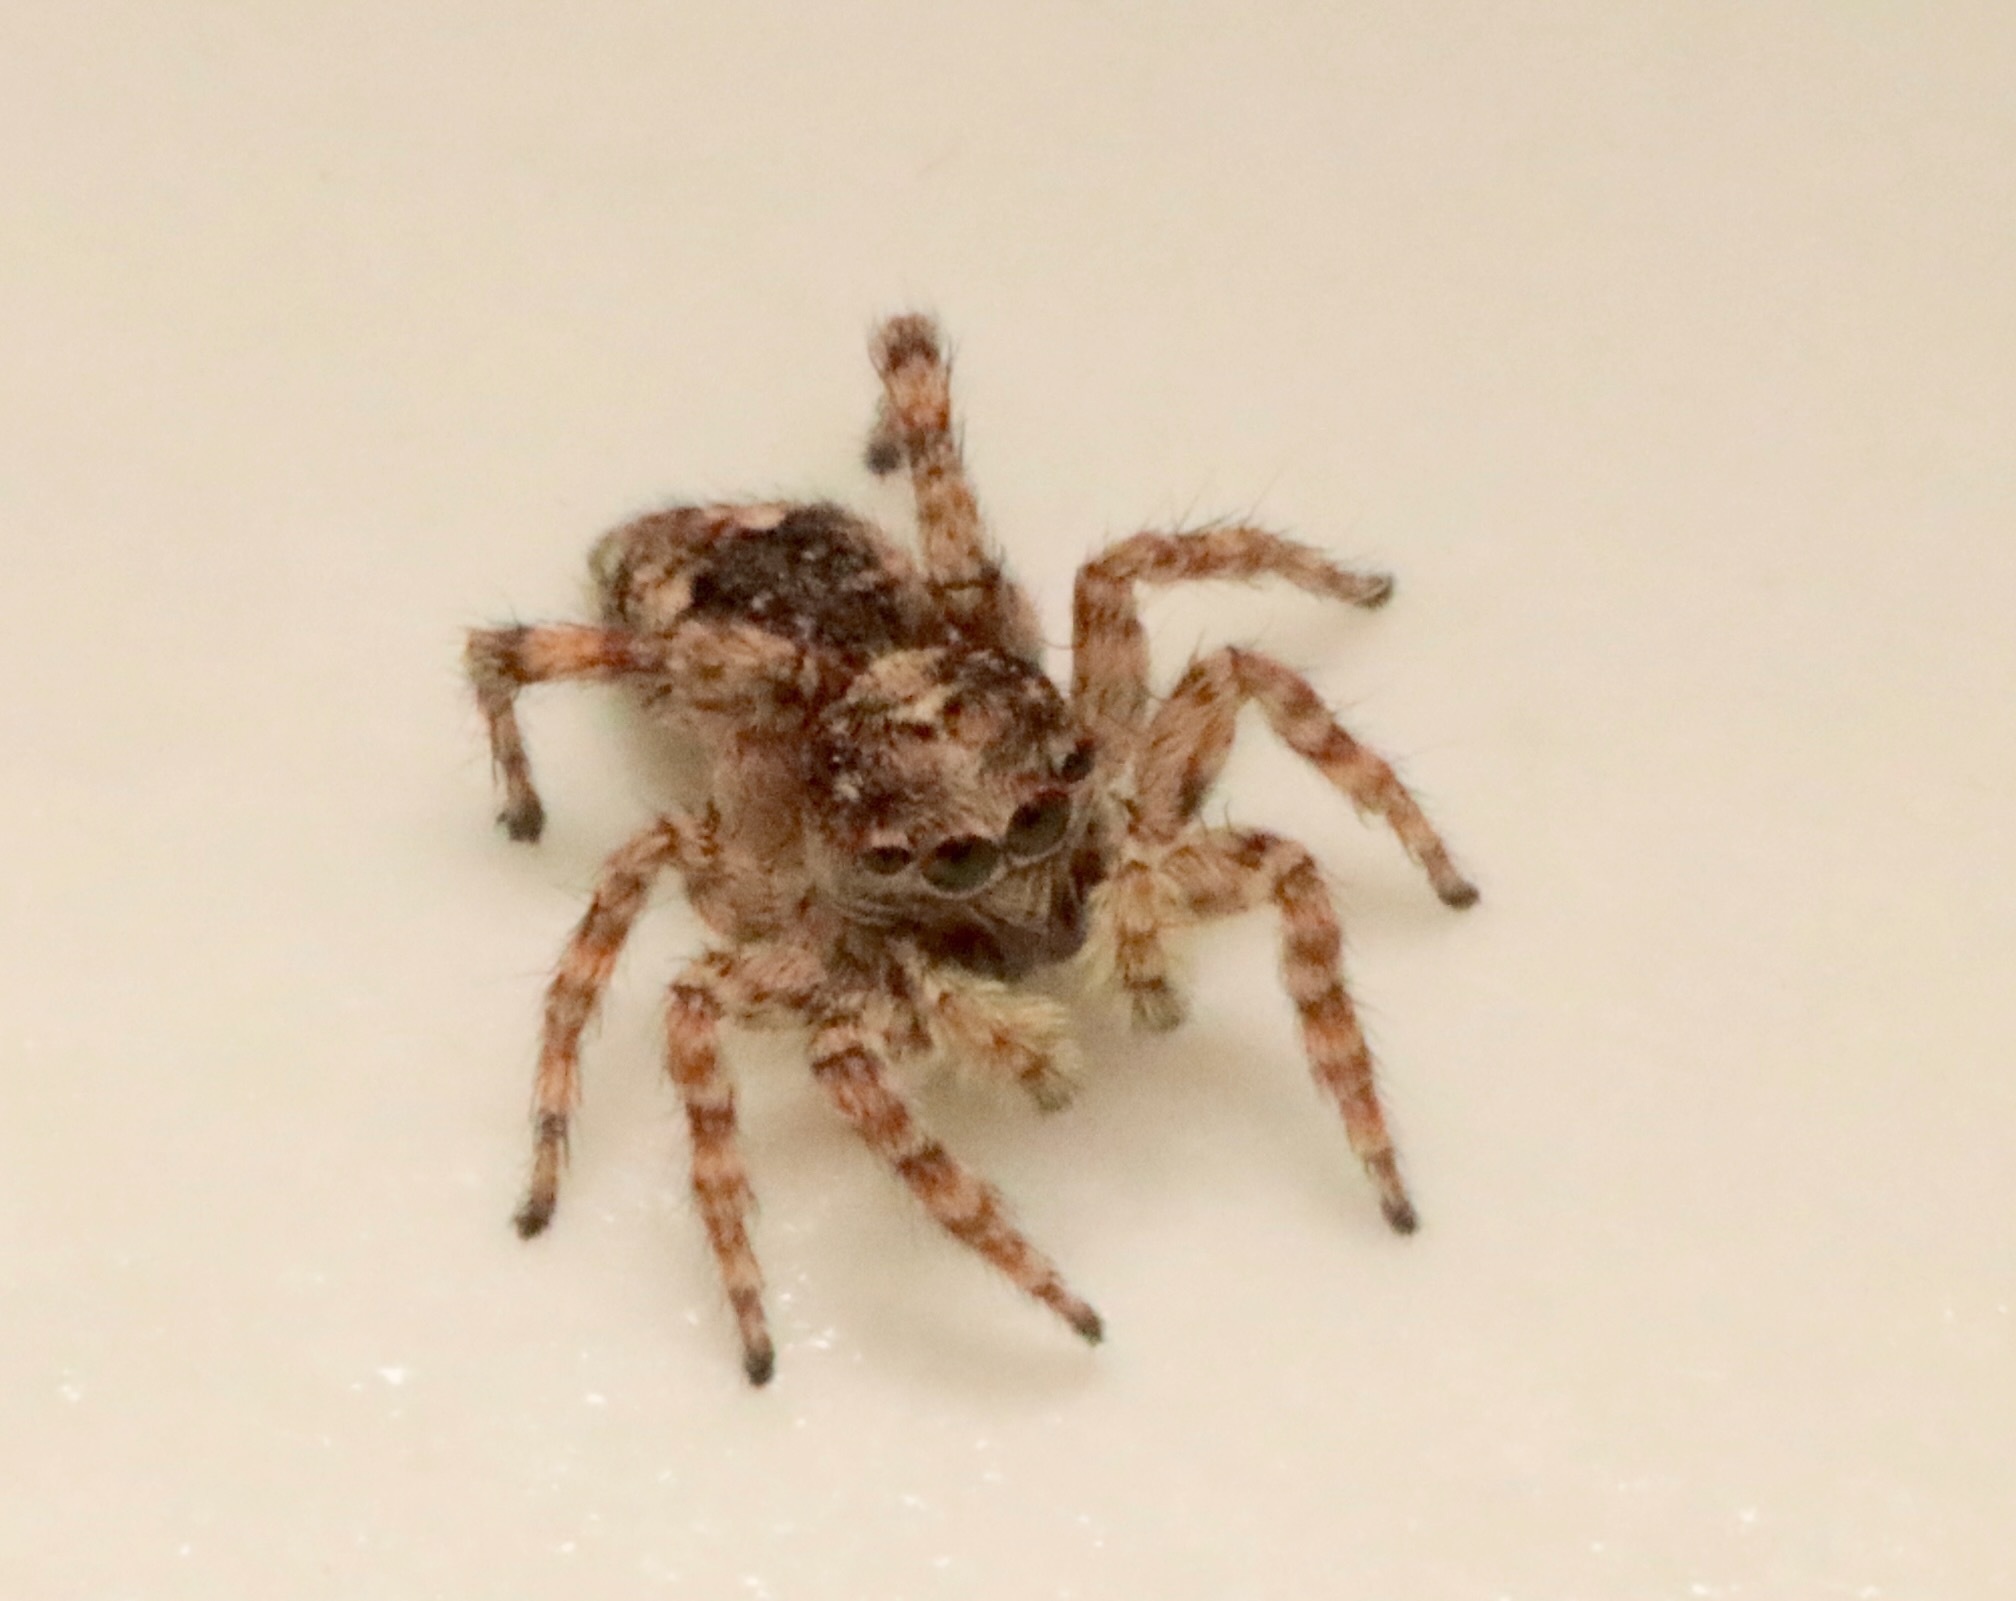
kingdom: Animalia
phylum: Arthropoda
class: Arachnida
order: Araneae
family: Salticidae
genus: Attulus
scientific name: Attulus fasciger
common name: Asiatic wall jumping spider
